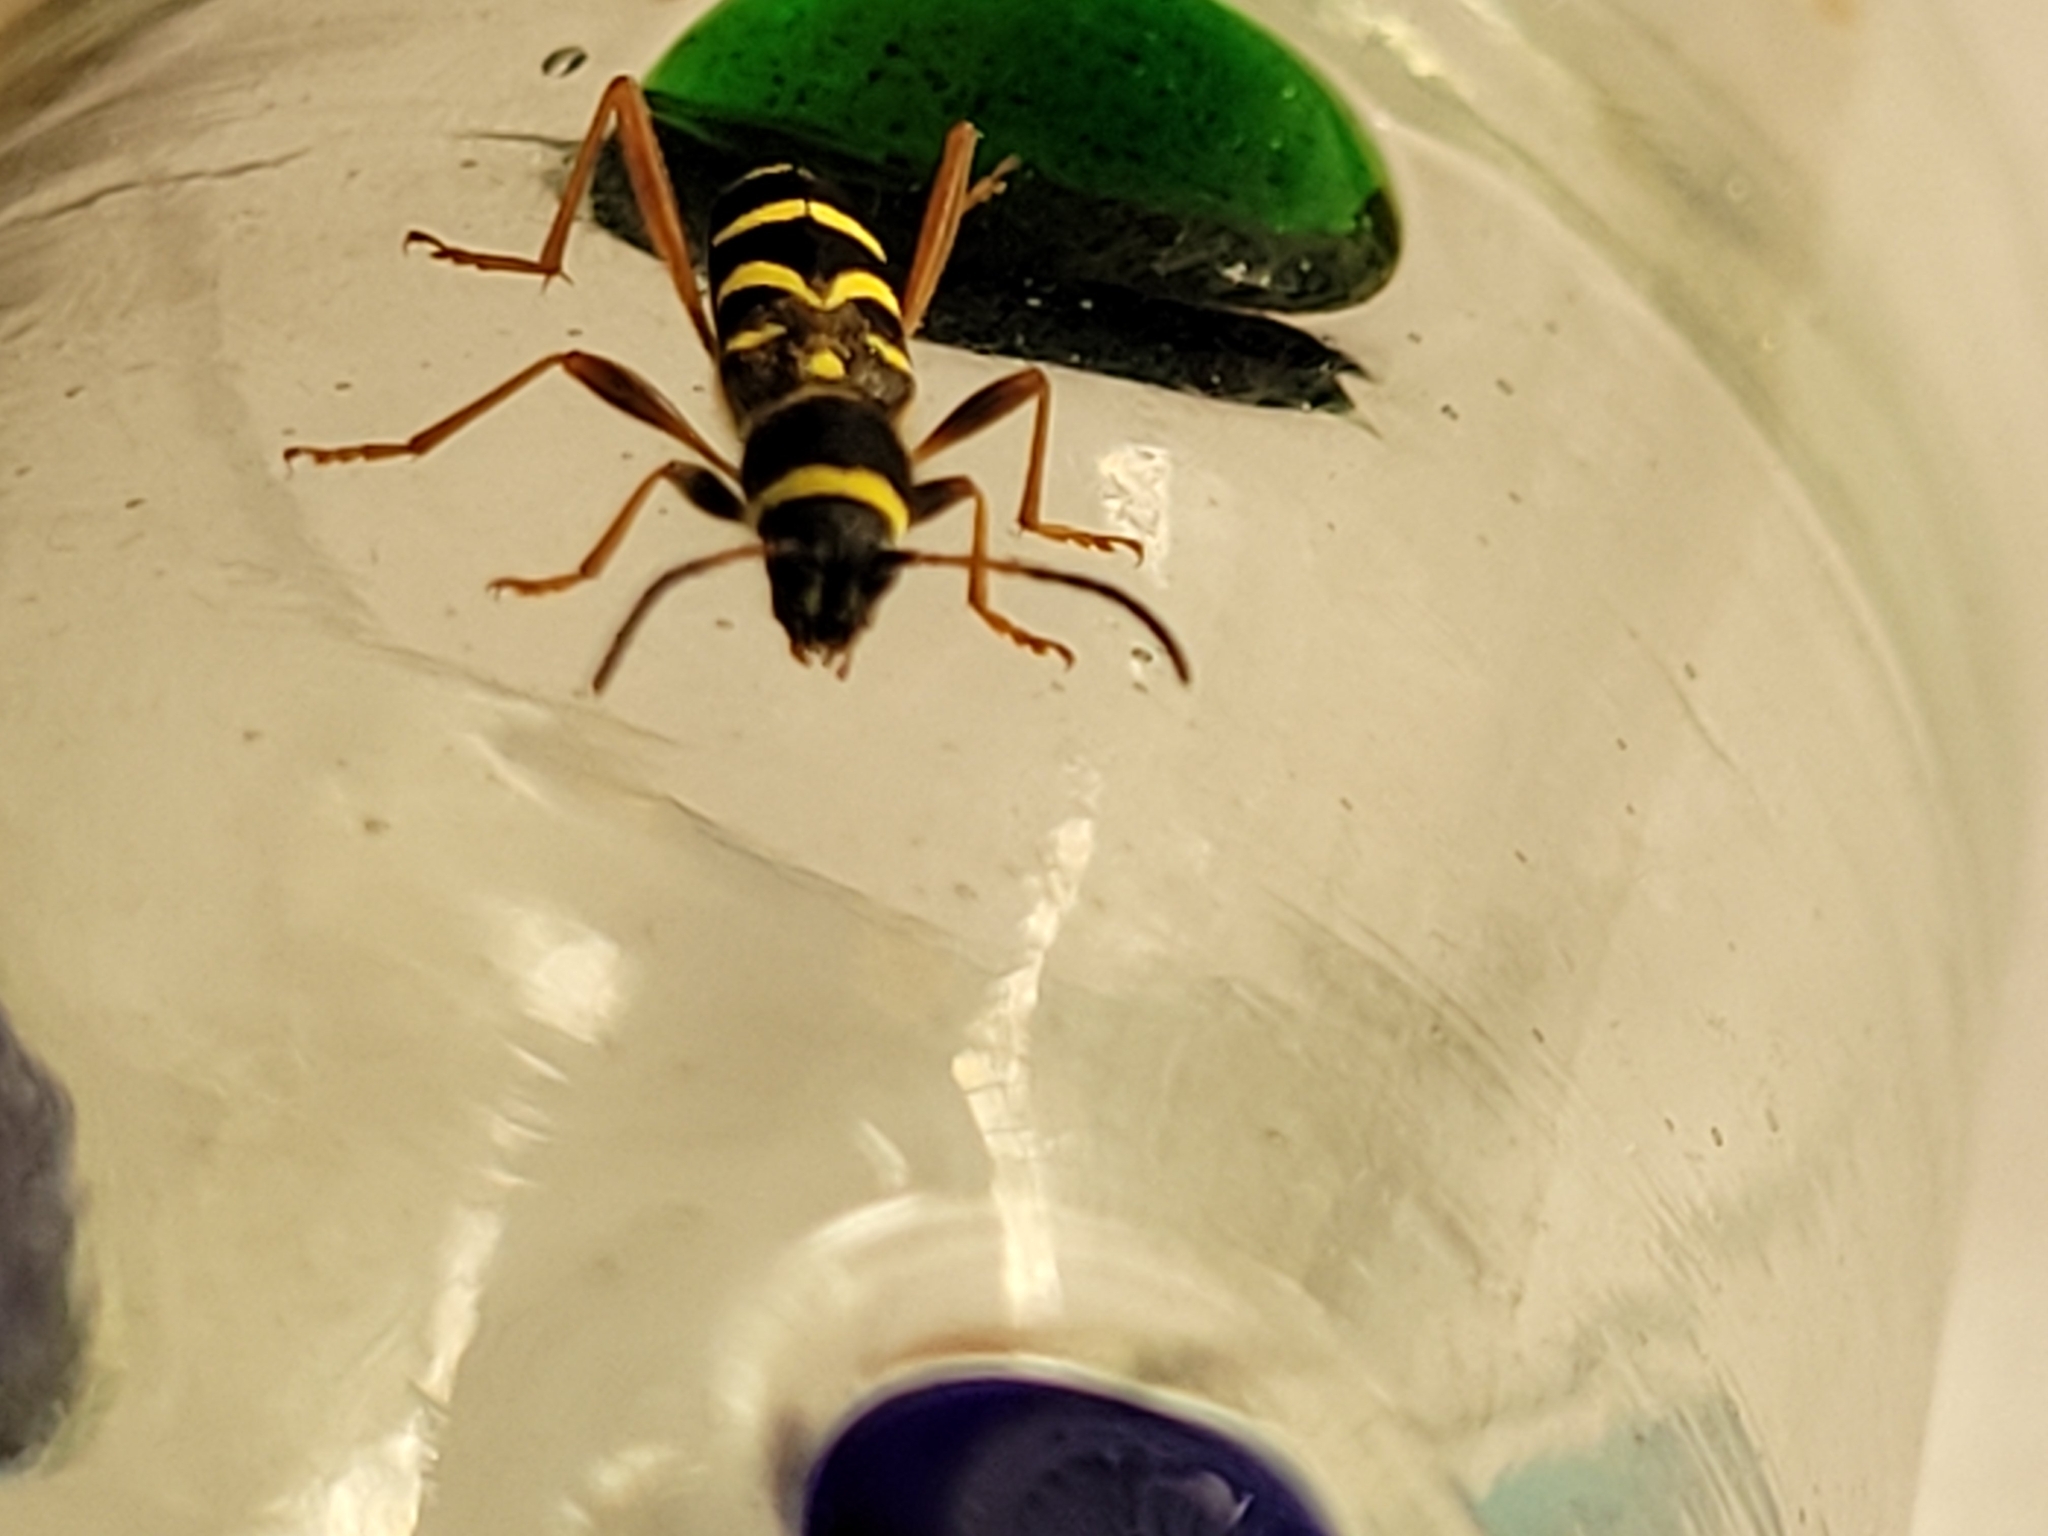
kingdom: Animalia
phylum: Arthropoda
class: Insecta
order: Coleoptera
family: Cerambycidae
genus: Clytus
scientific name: Clytus arietis
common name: Wasp beetle
